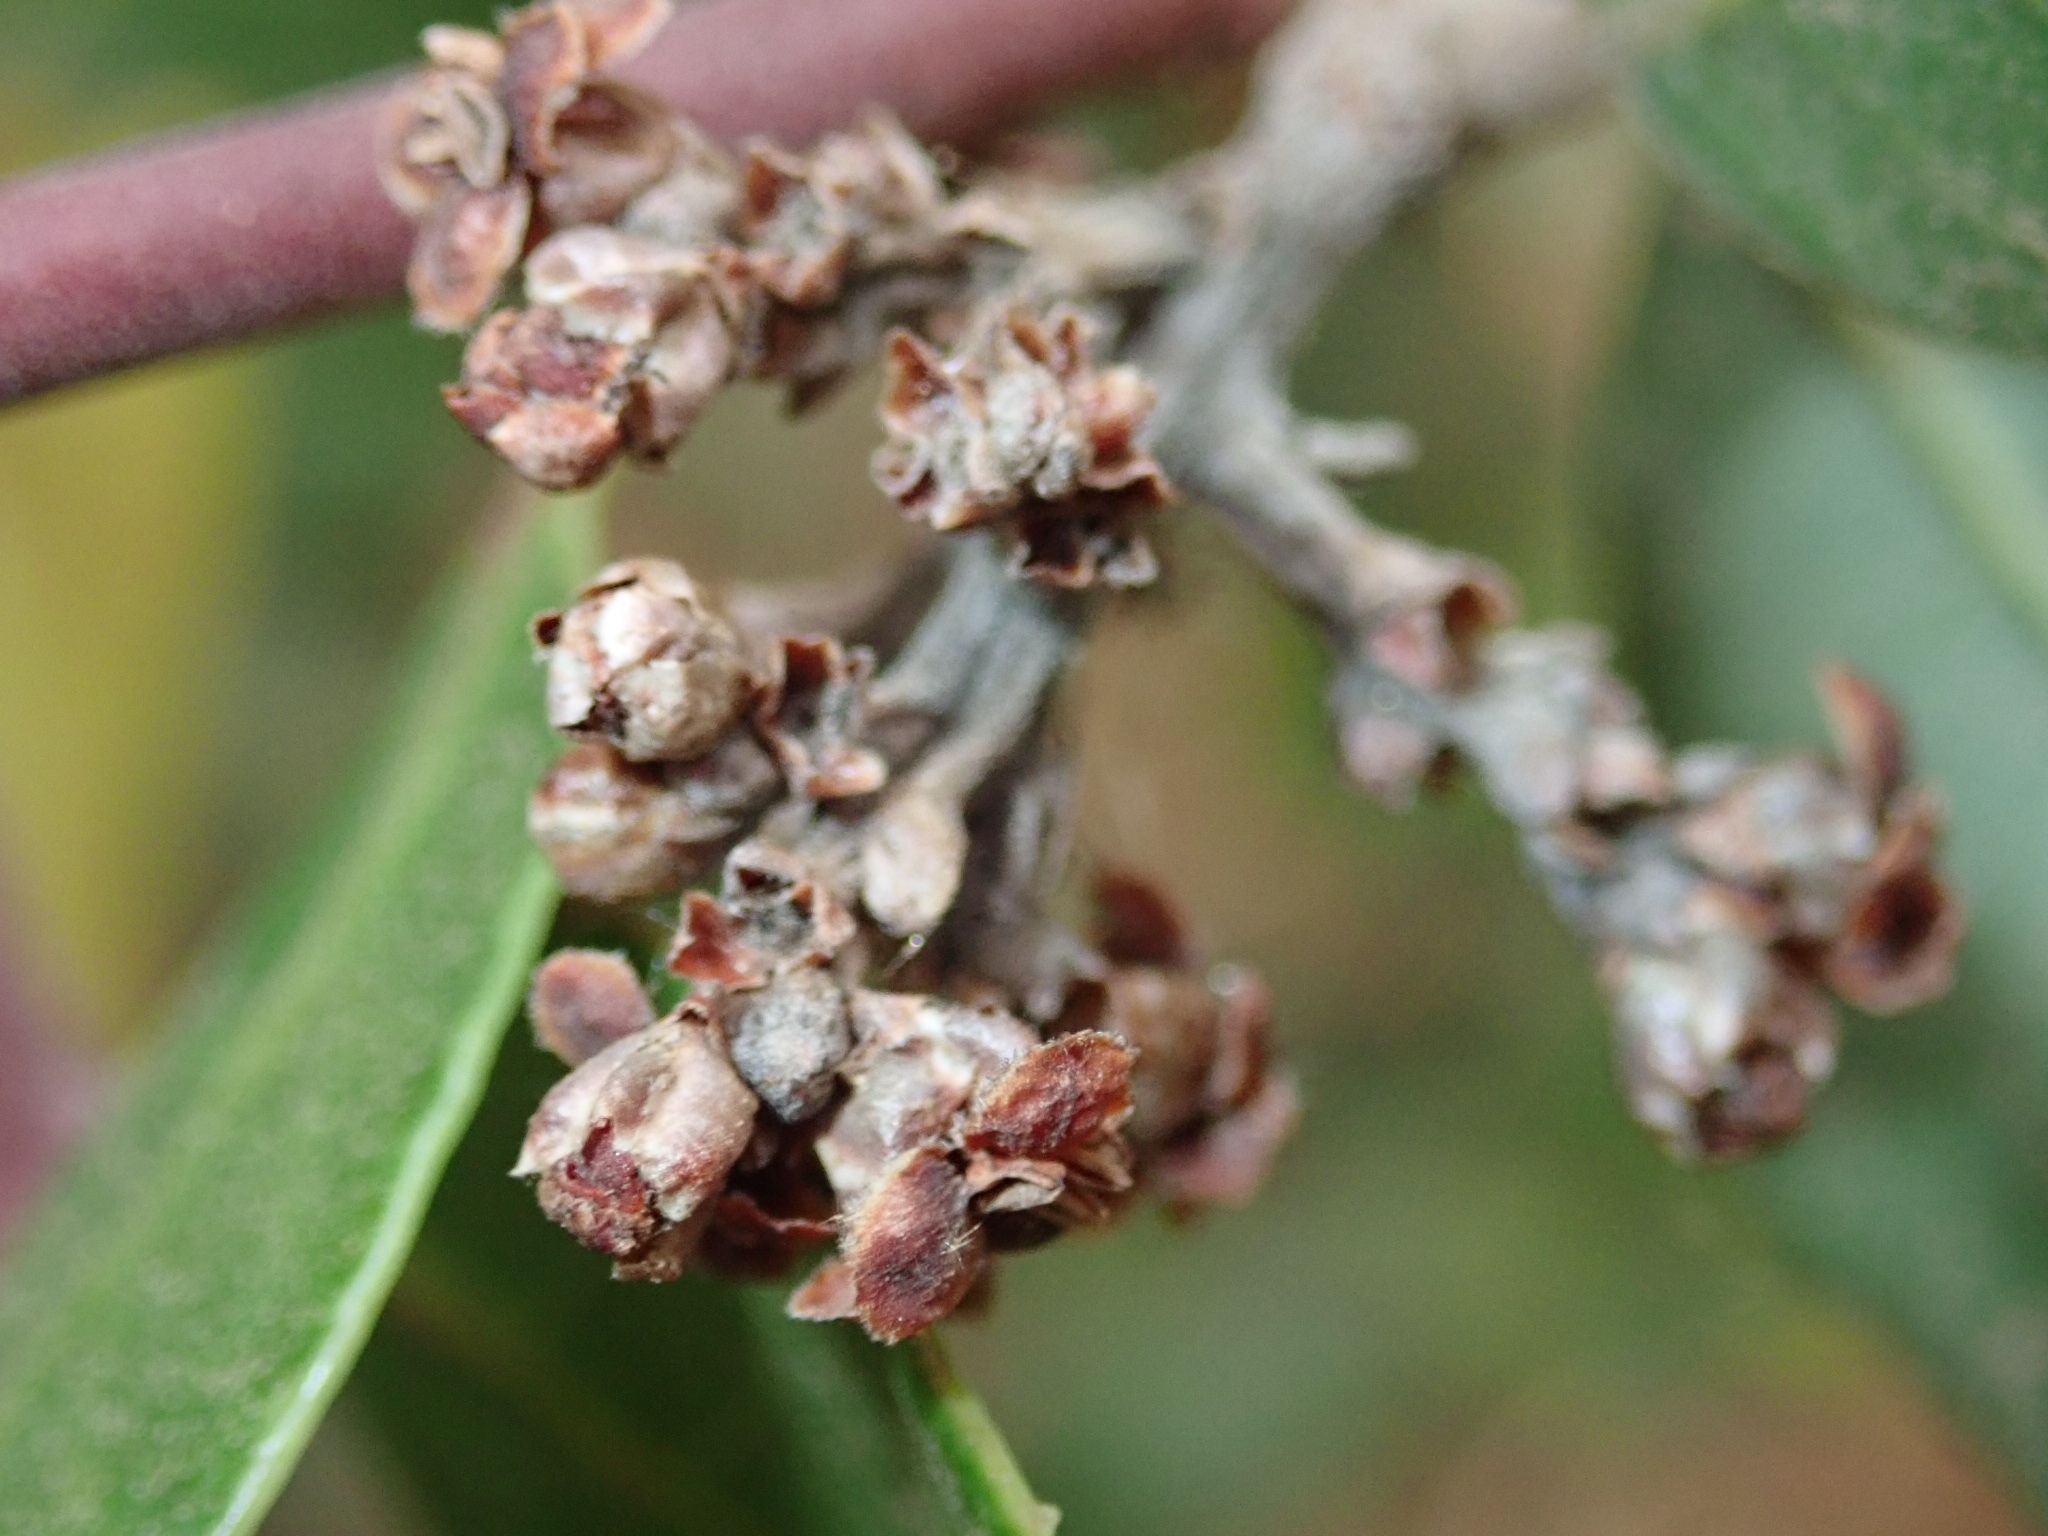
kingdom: Plantae
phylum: Tracheophyta
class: Magnoliopsida
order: Sapindales
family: Anacardiaceae
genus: Rhus
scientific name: Rhus integrifolia
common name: Lemonade sumac
